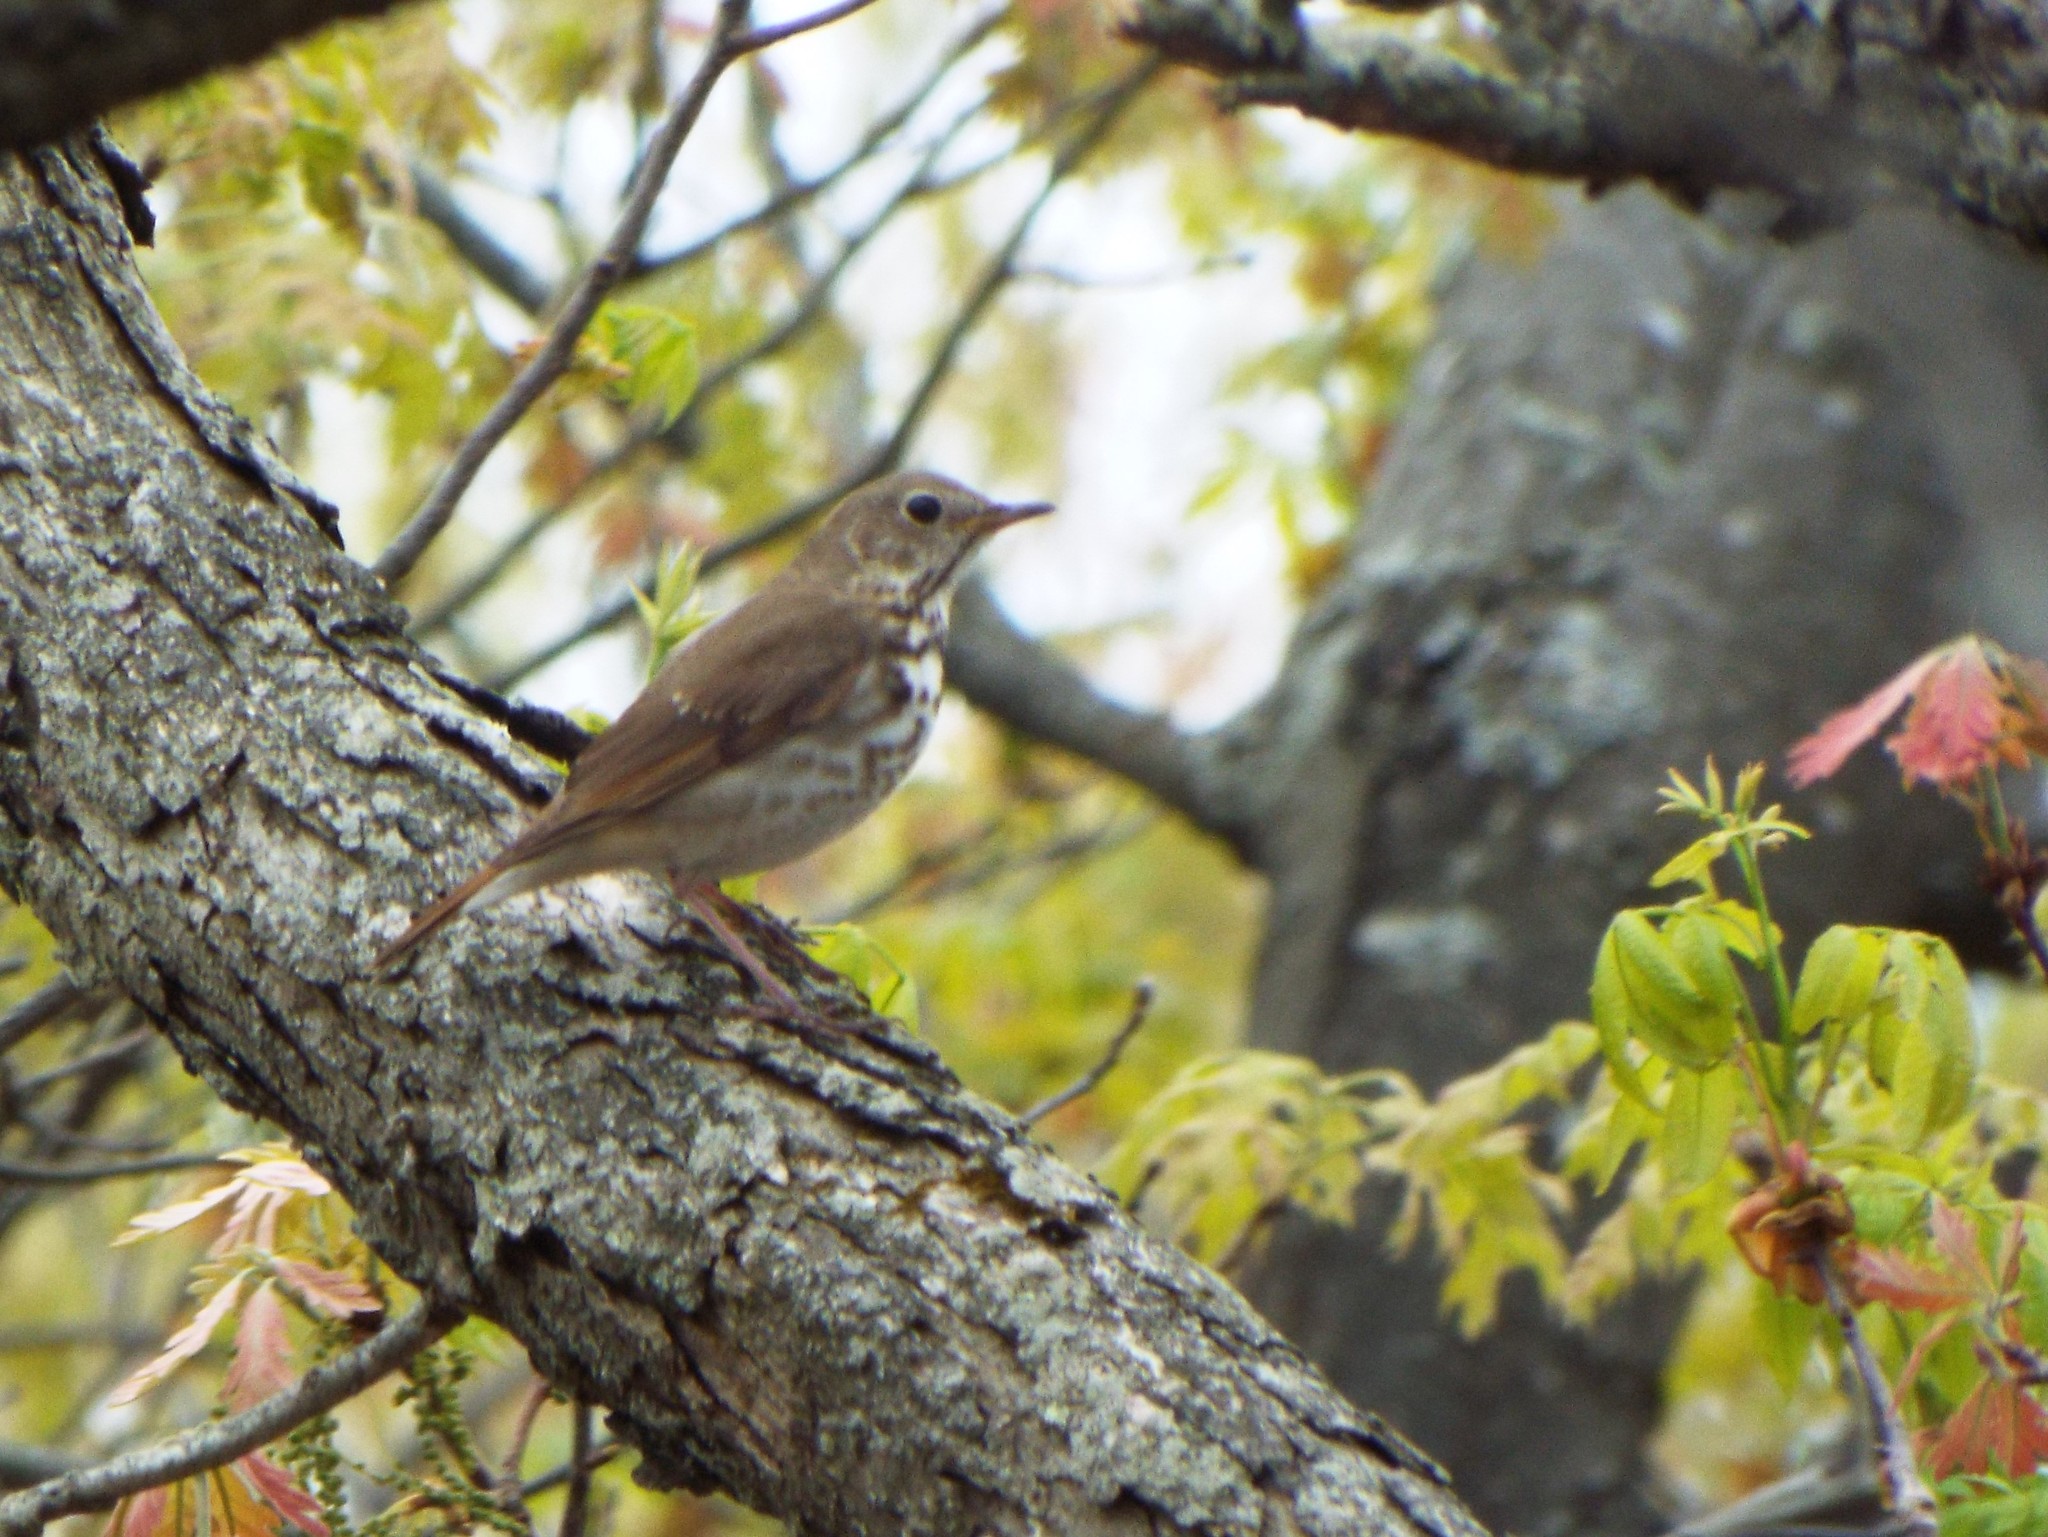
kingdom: Animalia
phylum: Chordata
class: Aves
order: Passeriformes
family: Turdidae
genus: Catharus
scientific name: Catharus guttatus
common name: Hermit thrush
